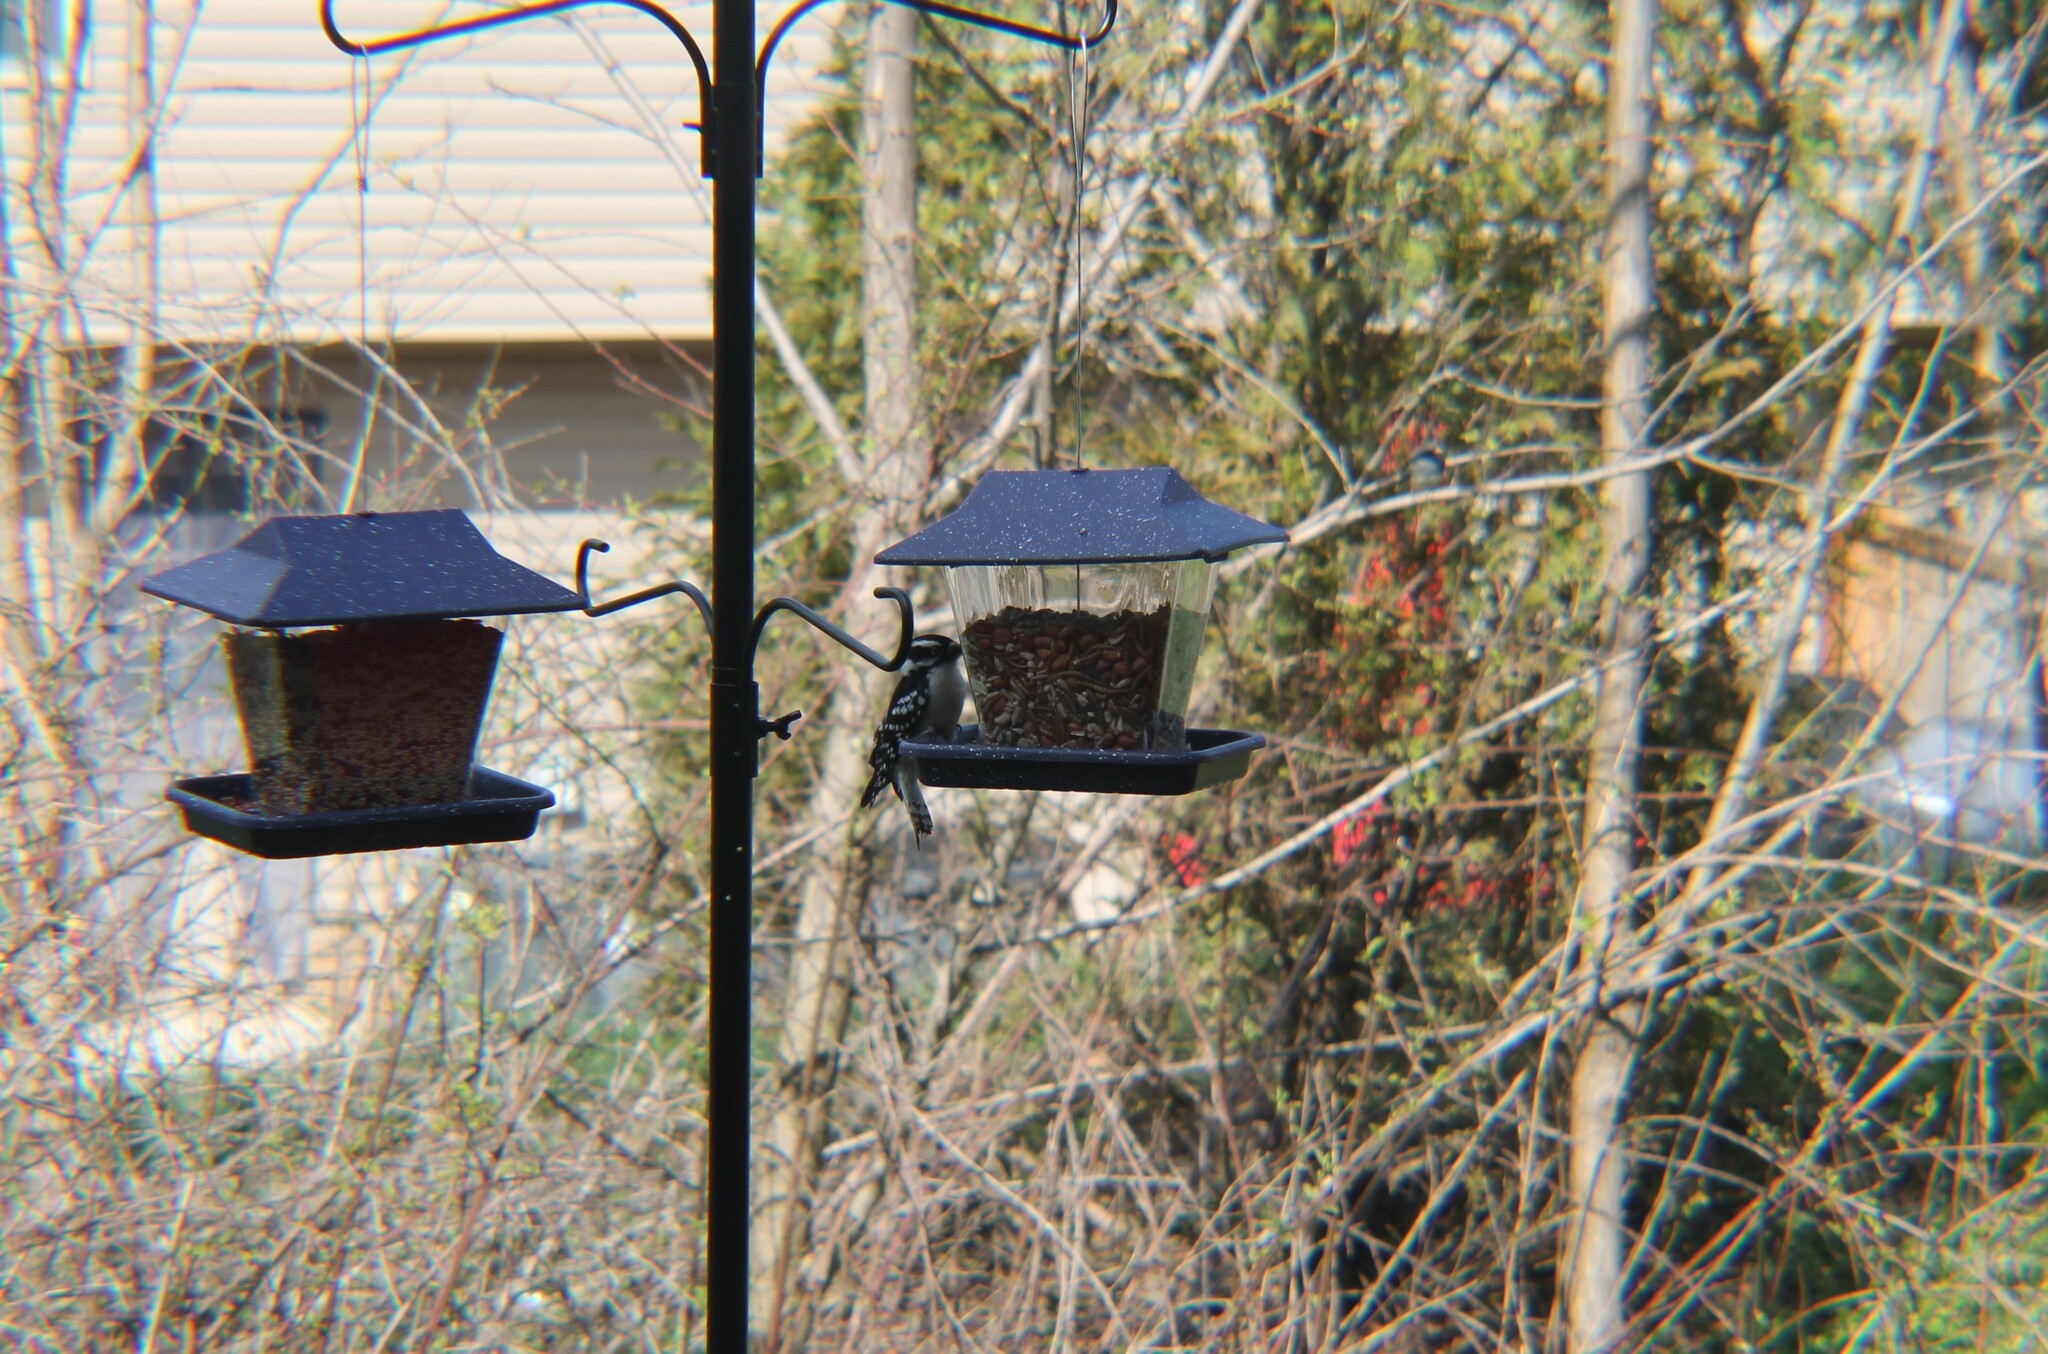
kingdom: Animalia
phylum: Chordata
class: Aves
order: Piciformes
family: Picidae
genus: Dryobates
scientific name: Dryobates pubescens
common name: Downy woodpecker
